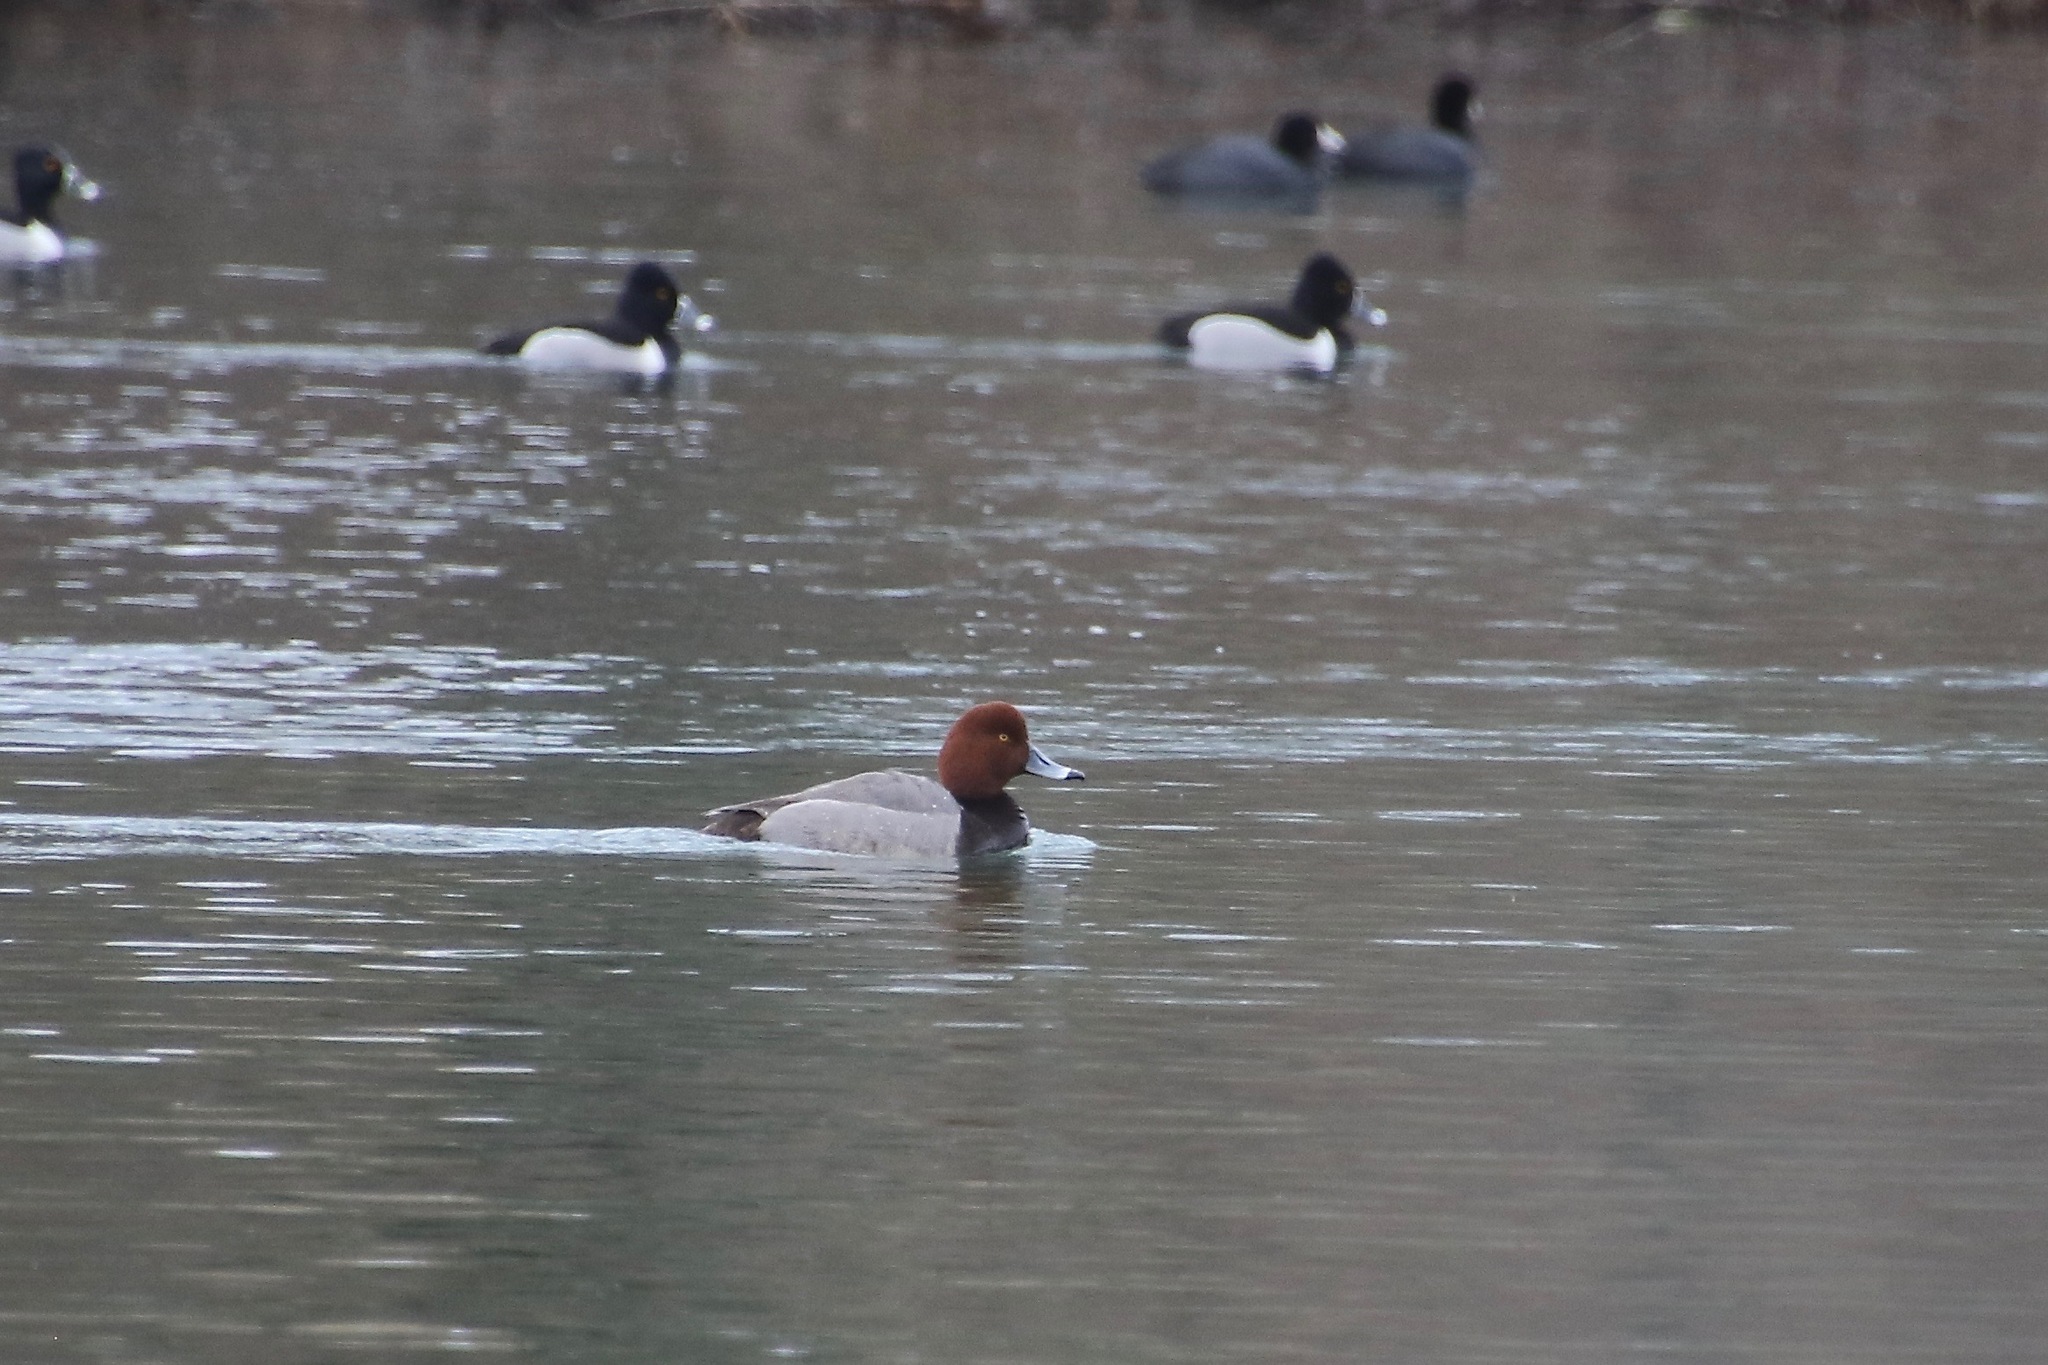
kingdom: Animalia
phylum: Chordata
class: Aves
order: Anseriformes
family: Anatidae
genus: Aythya
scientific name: Aythya americana
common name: Redhead
